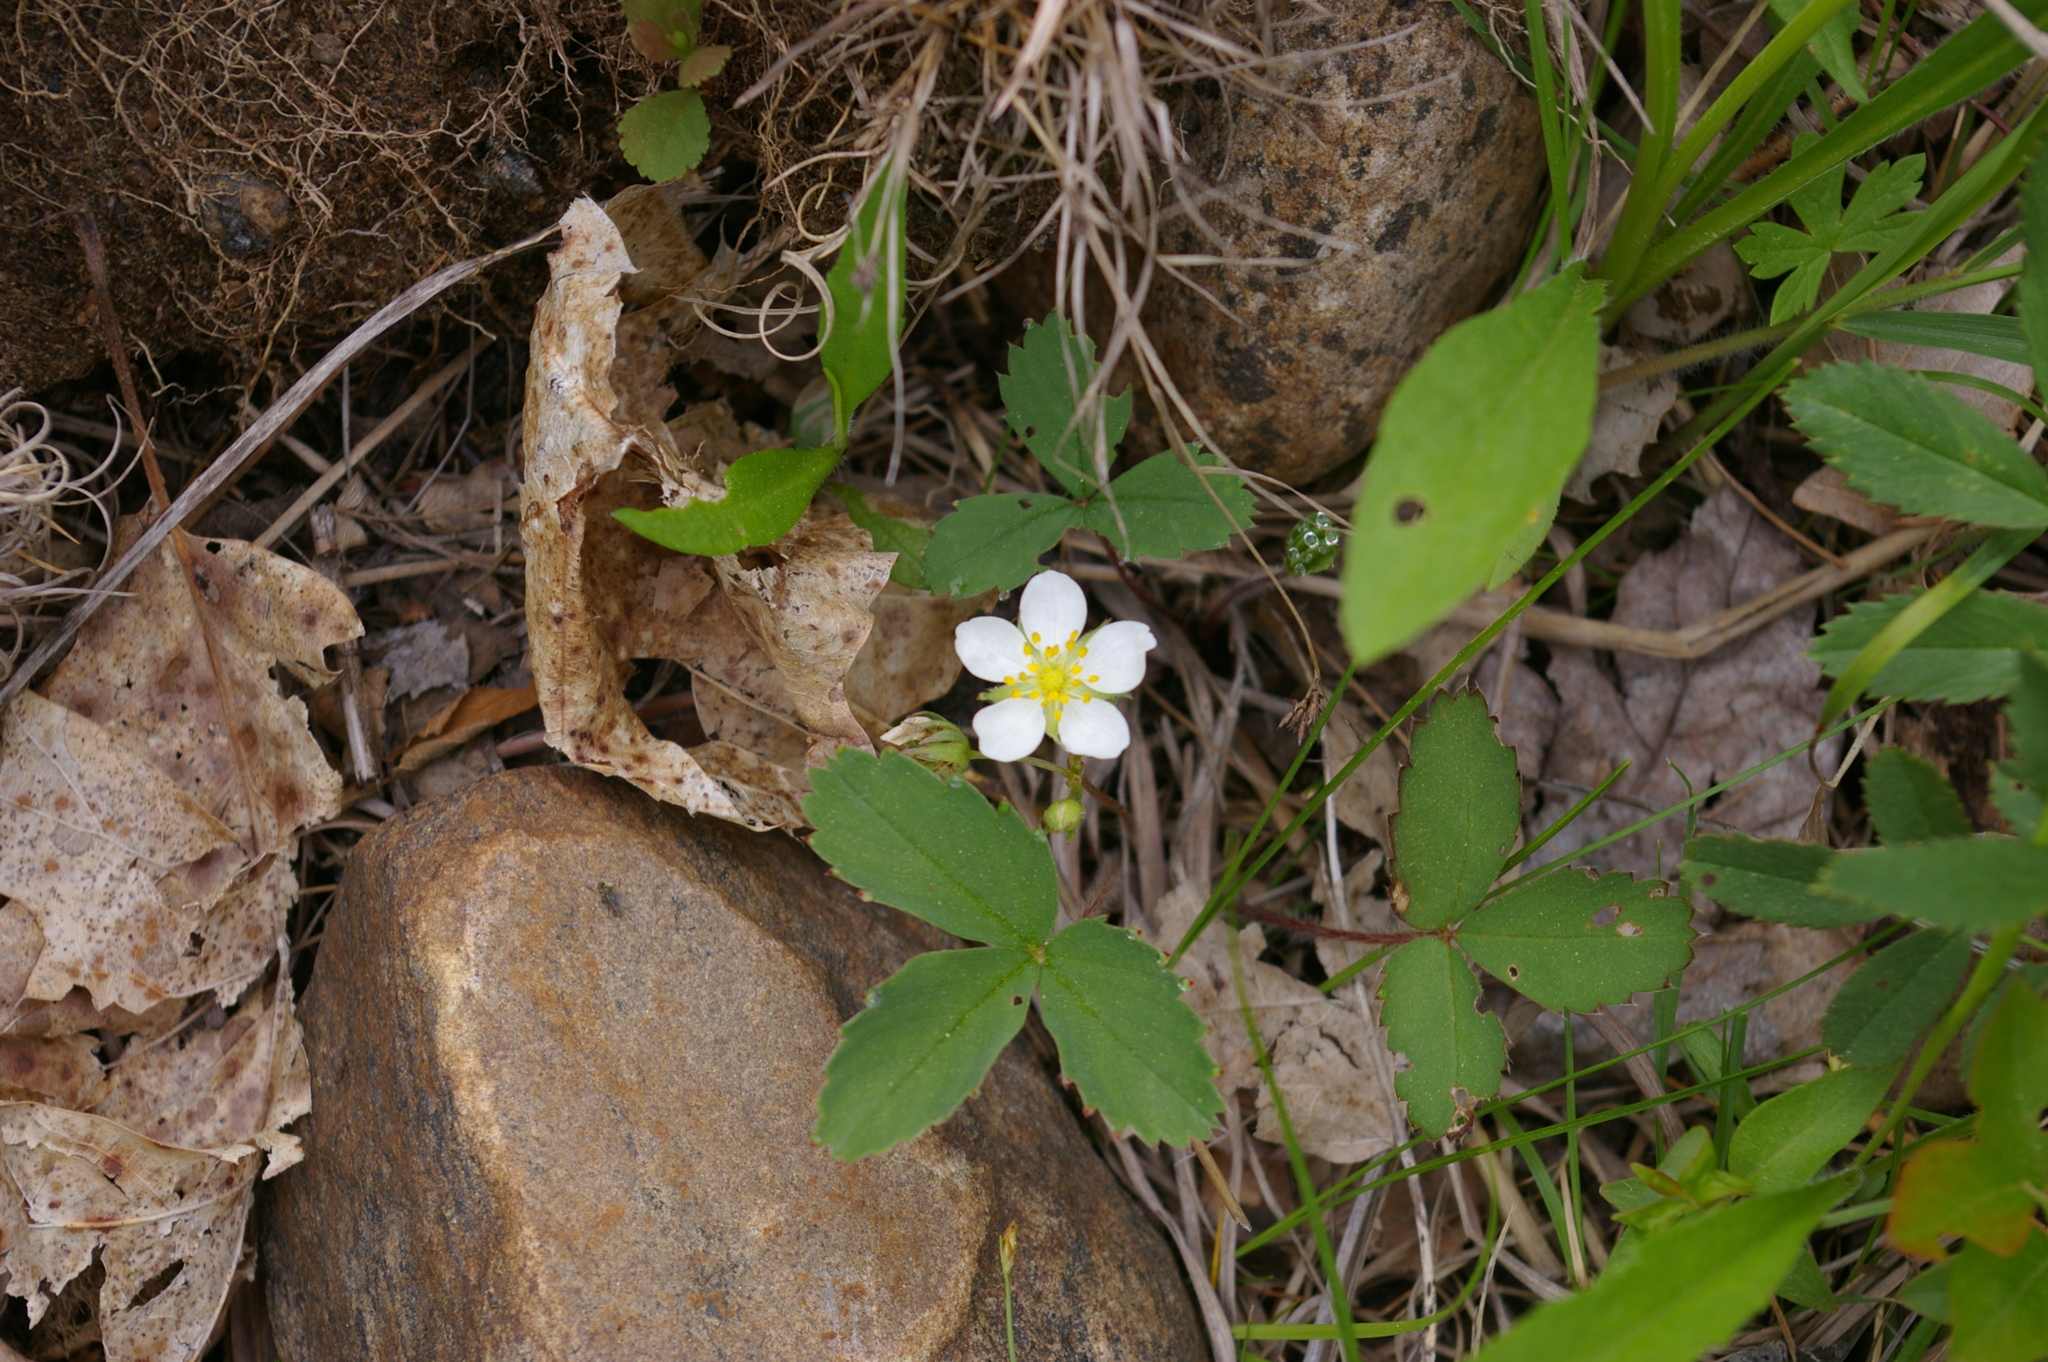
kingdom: Plantae
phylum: Tracheophyta
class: Magnoliopsida
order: Rosales
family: Rosaceae
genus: Fragaria
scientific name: Fragaria virginiana
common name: Thickleaved wild strawberry
